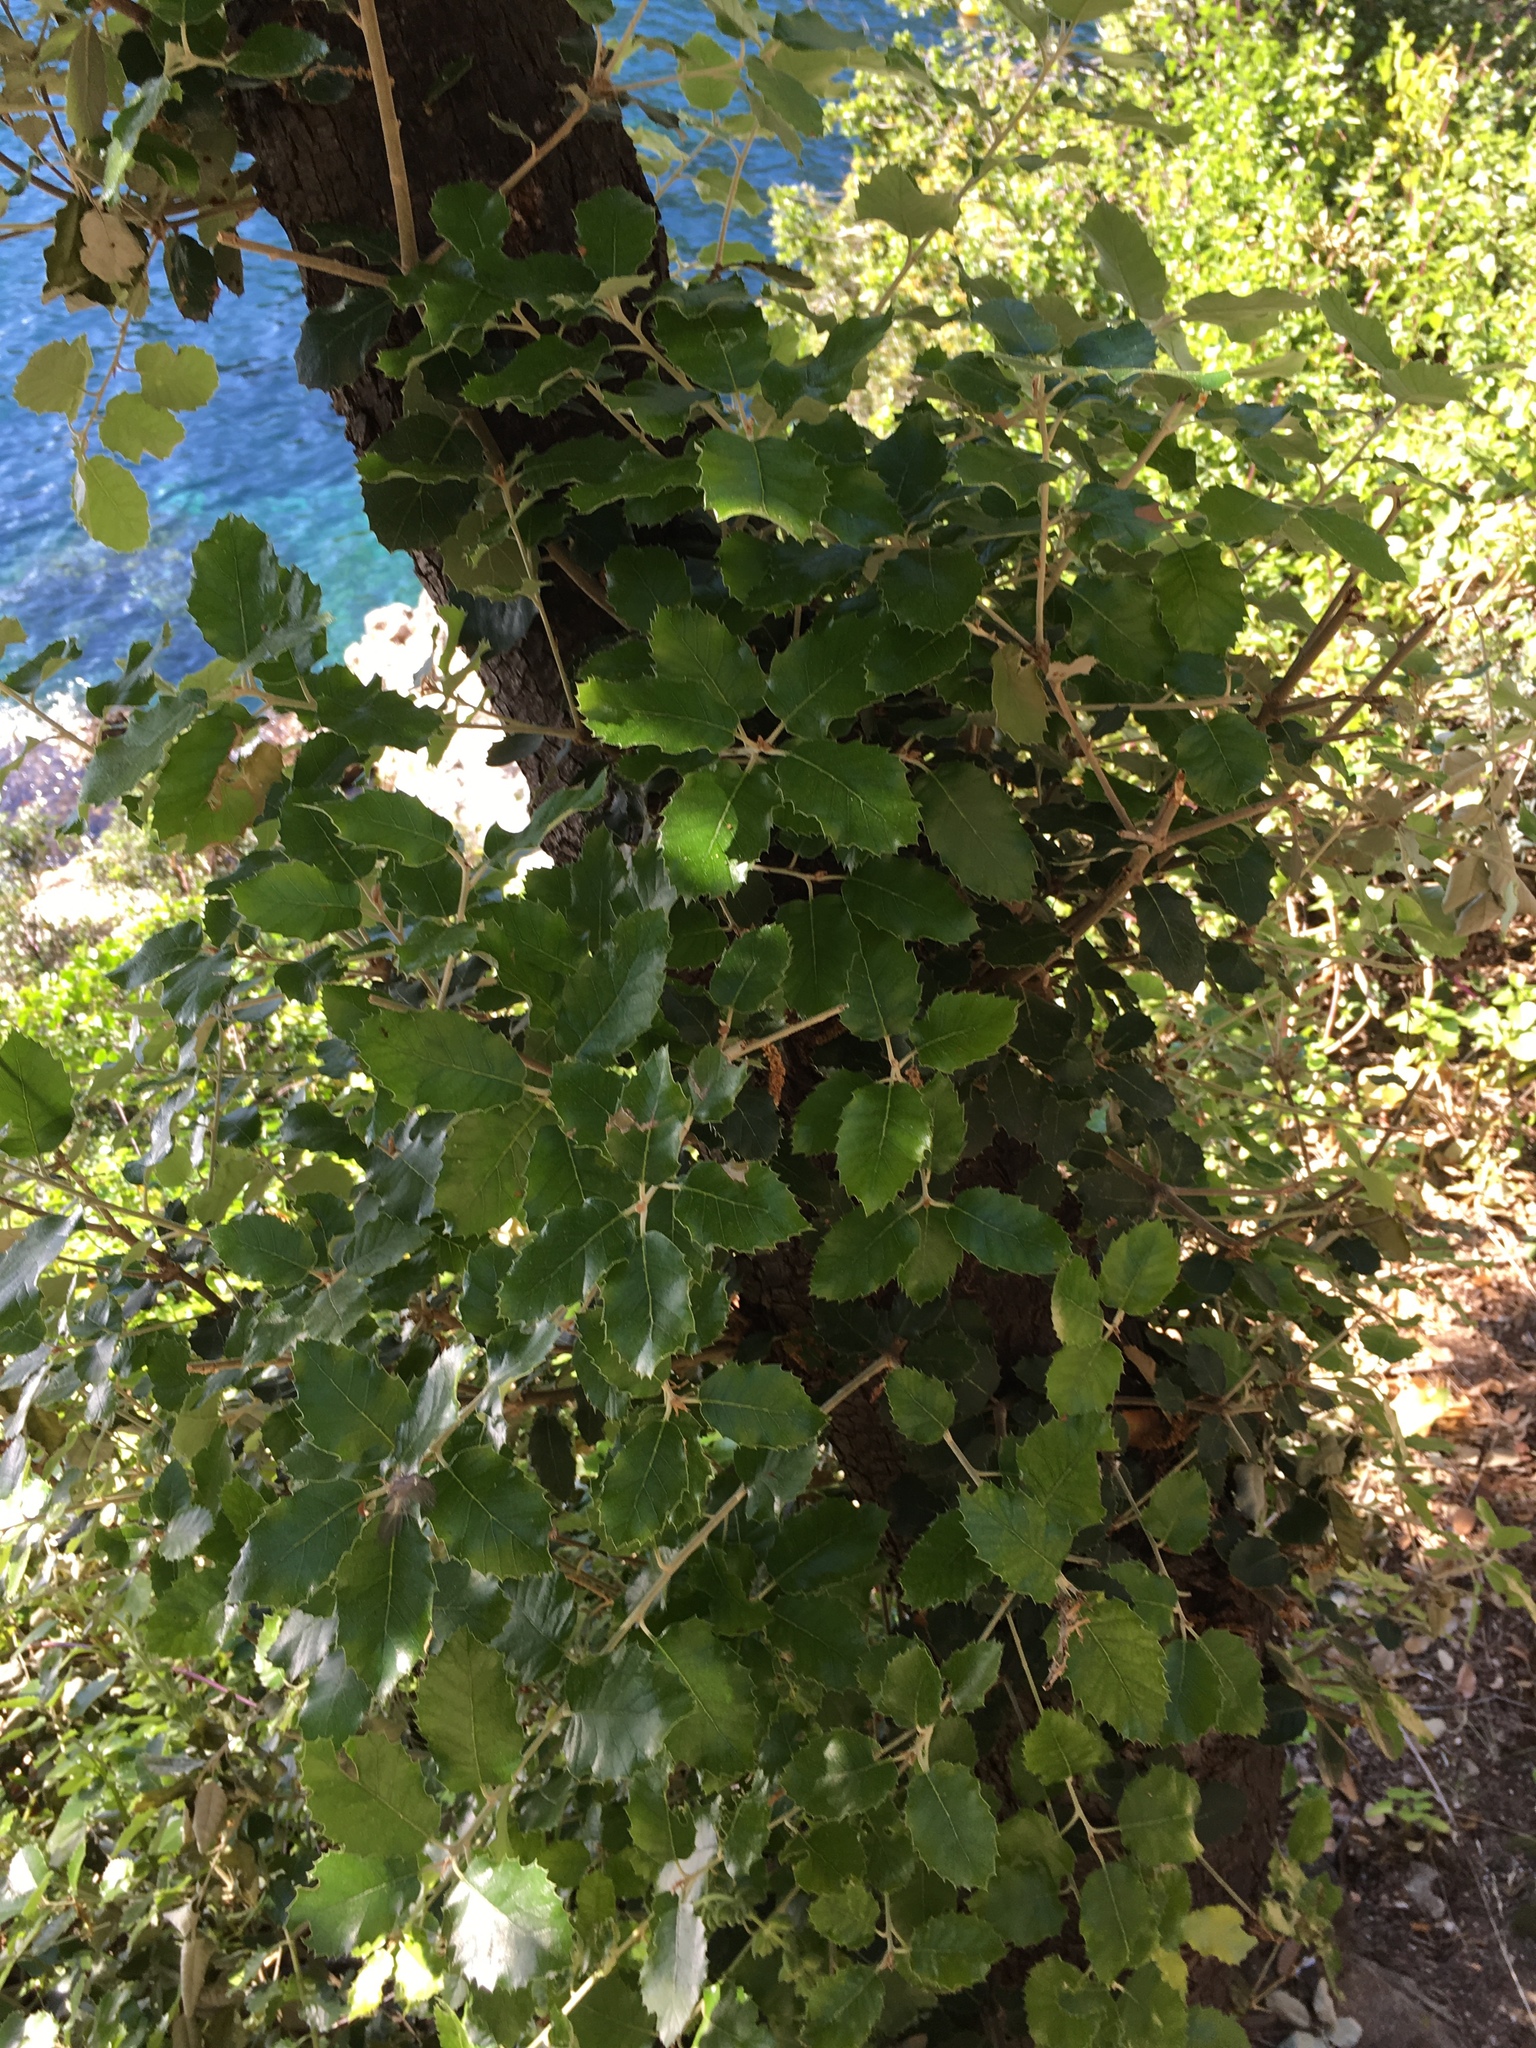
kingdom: Plantae
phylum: Tracheophyta
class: Magnoliopsida
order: Fagales
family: Fagaceae
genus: Quercus
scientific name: Quercus ilex
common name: Evergreen oak
